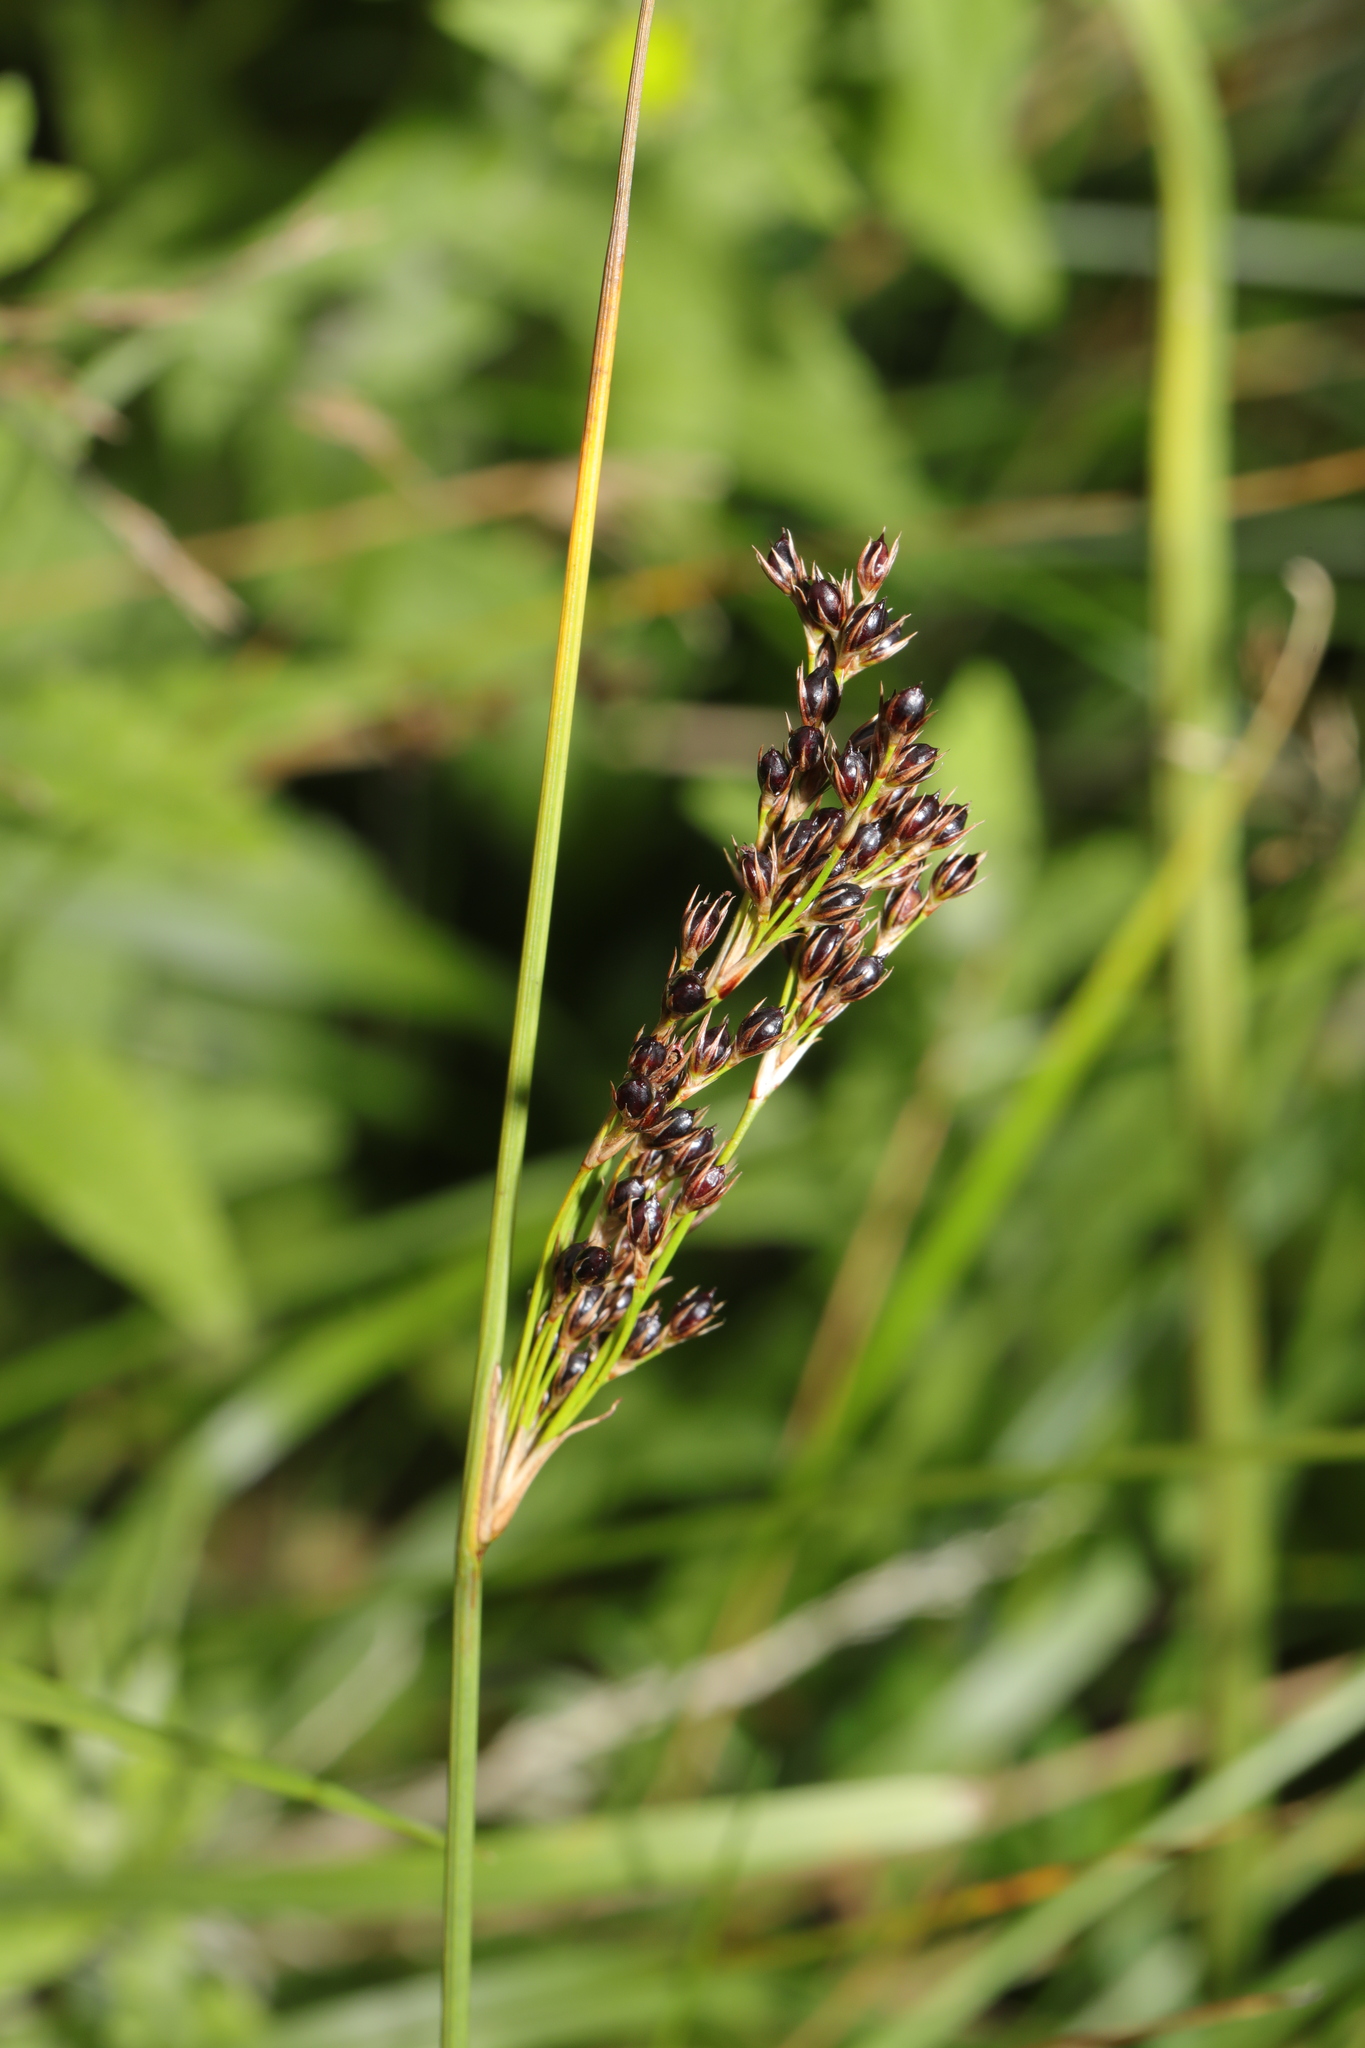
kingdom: Plantae
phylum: Tracheophyta
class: Liliopsida
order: Poales
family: Juncaceae
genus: Juncus
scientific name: Juncus inflexus
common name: Hard rush
